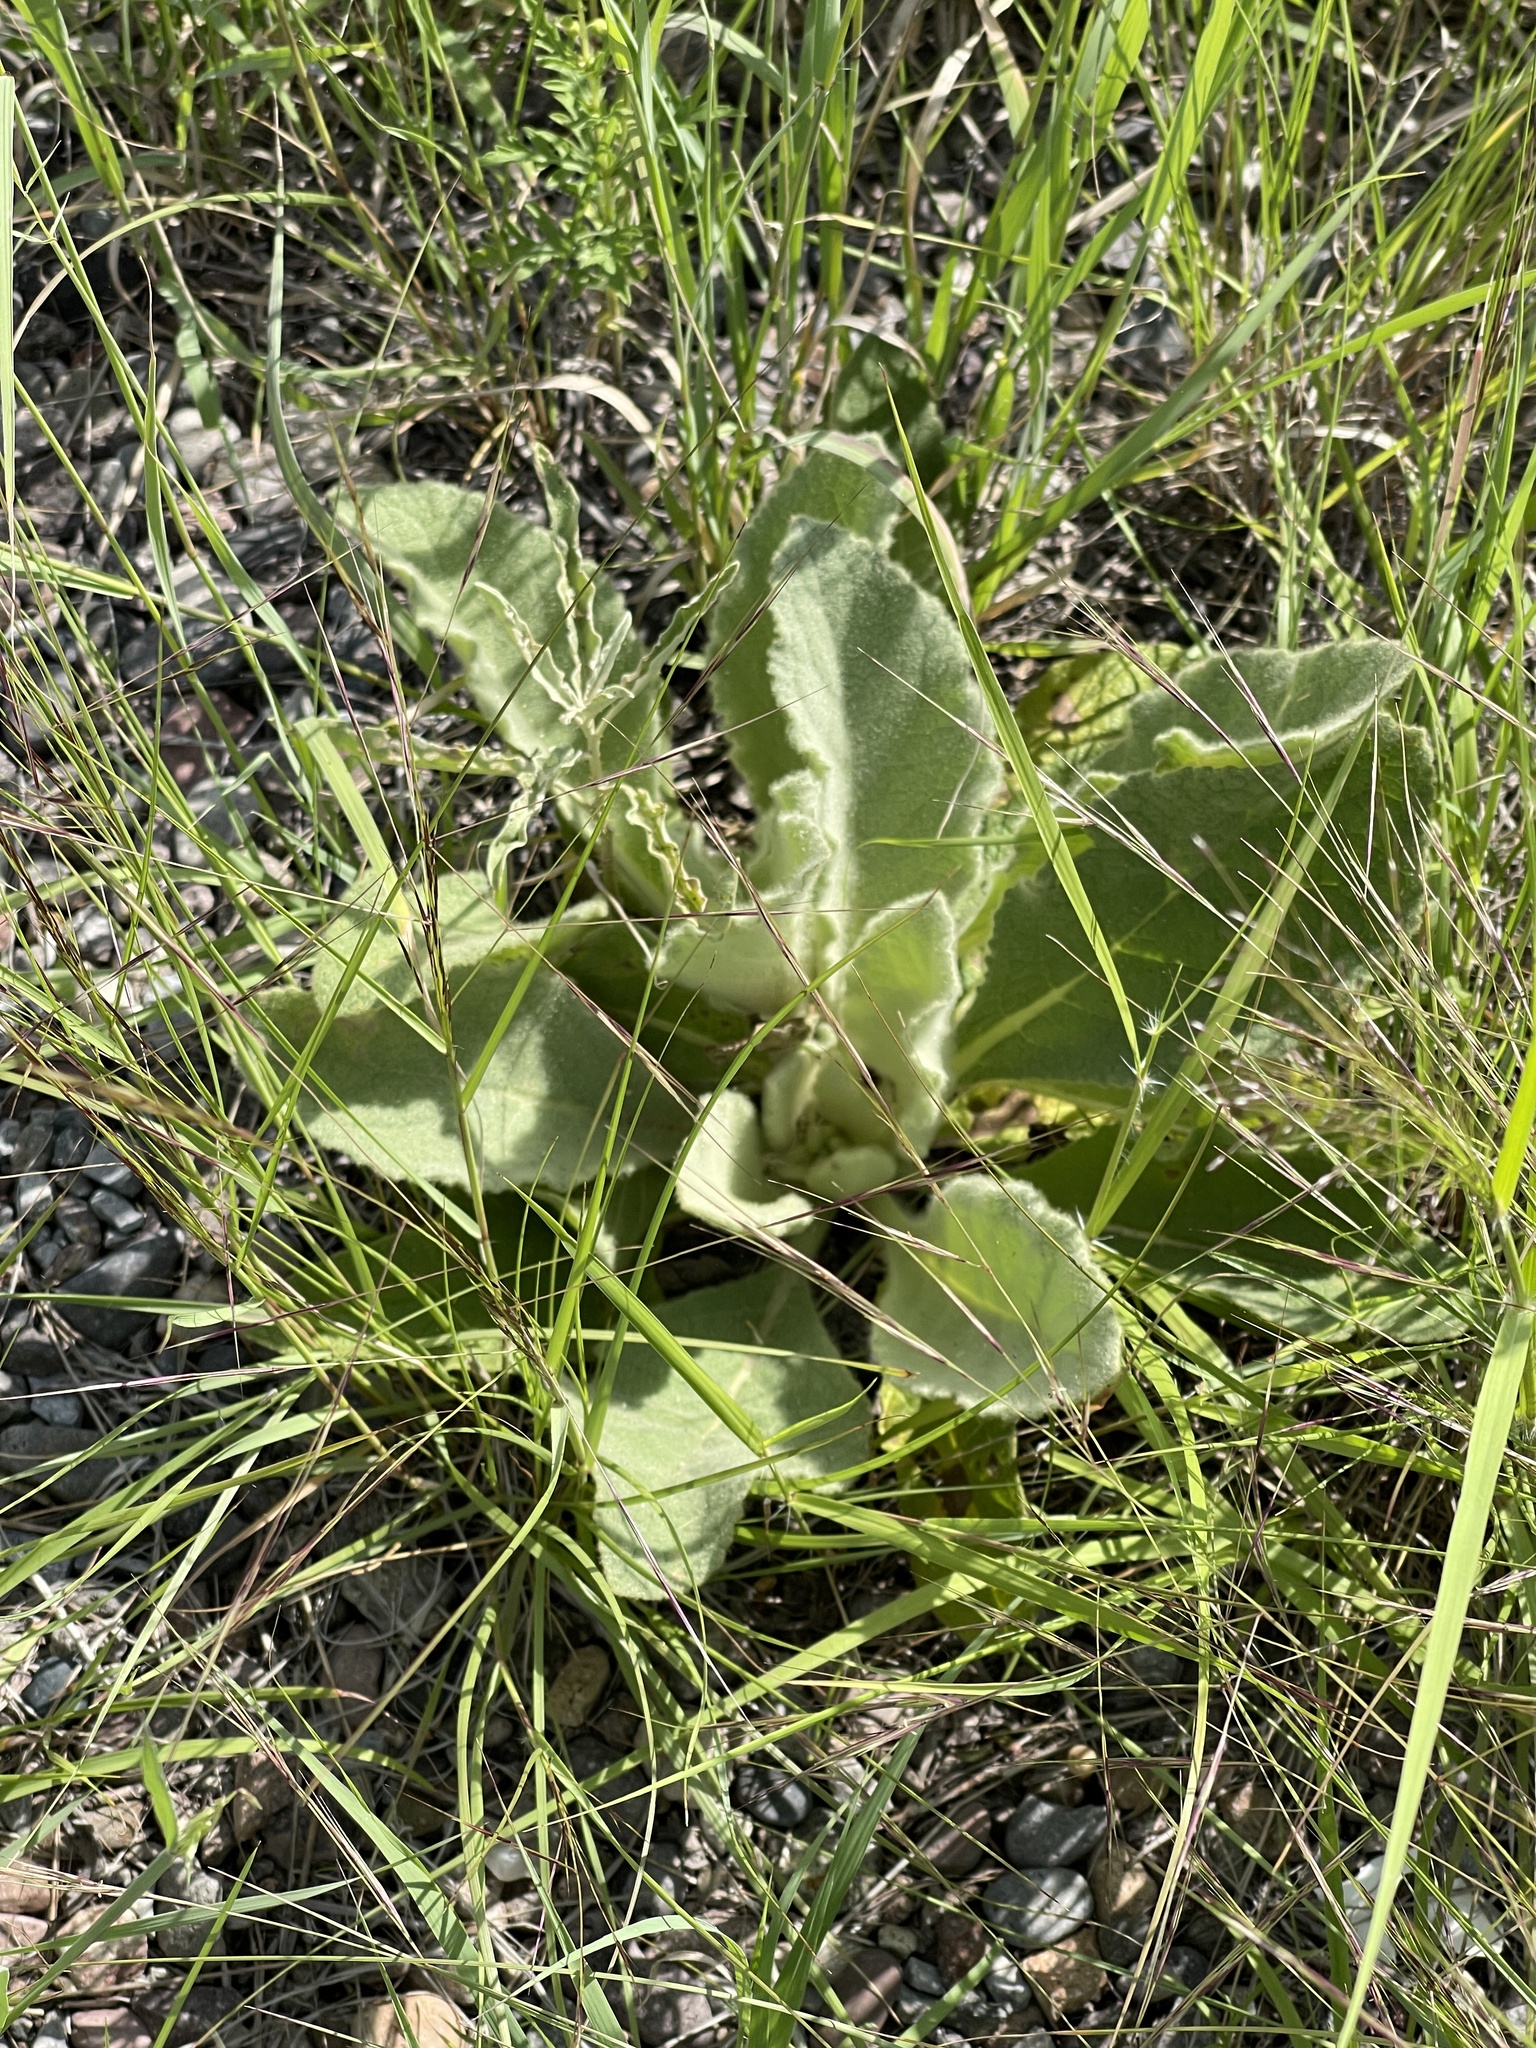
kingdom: Plantae
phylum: Tracheophyta
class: Magnoliopsida
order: Lamiales
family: Scrophulariaceae
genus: Verbascum
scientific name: Verbascum thapsus
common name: Common mullein
